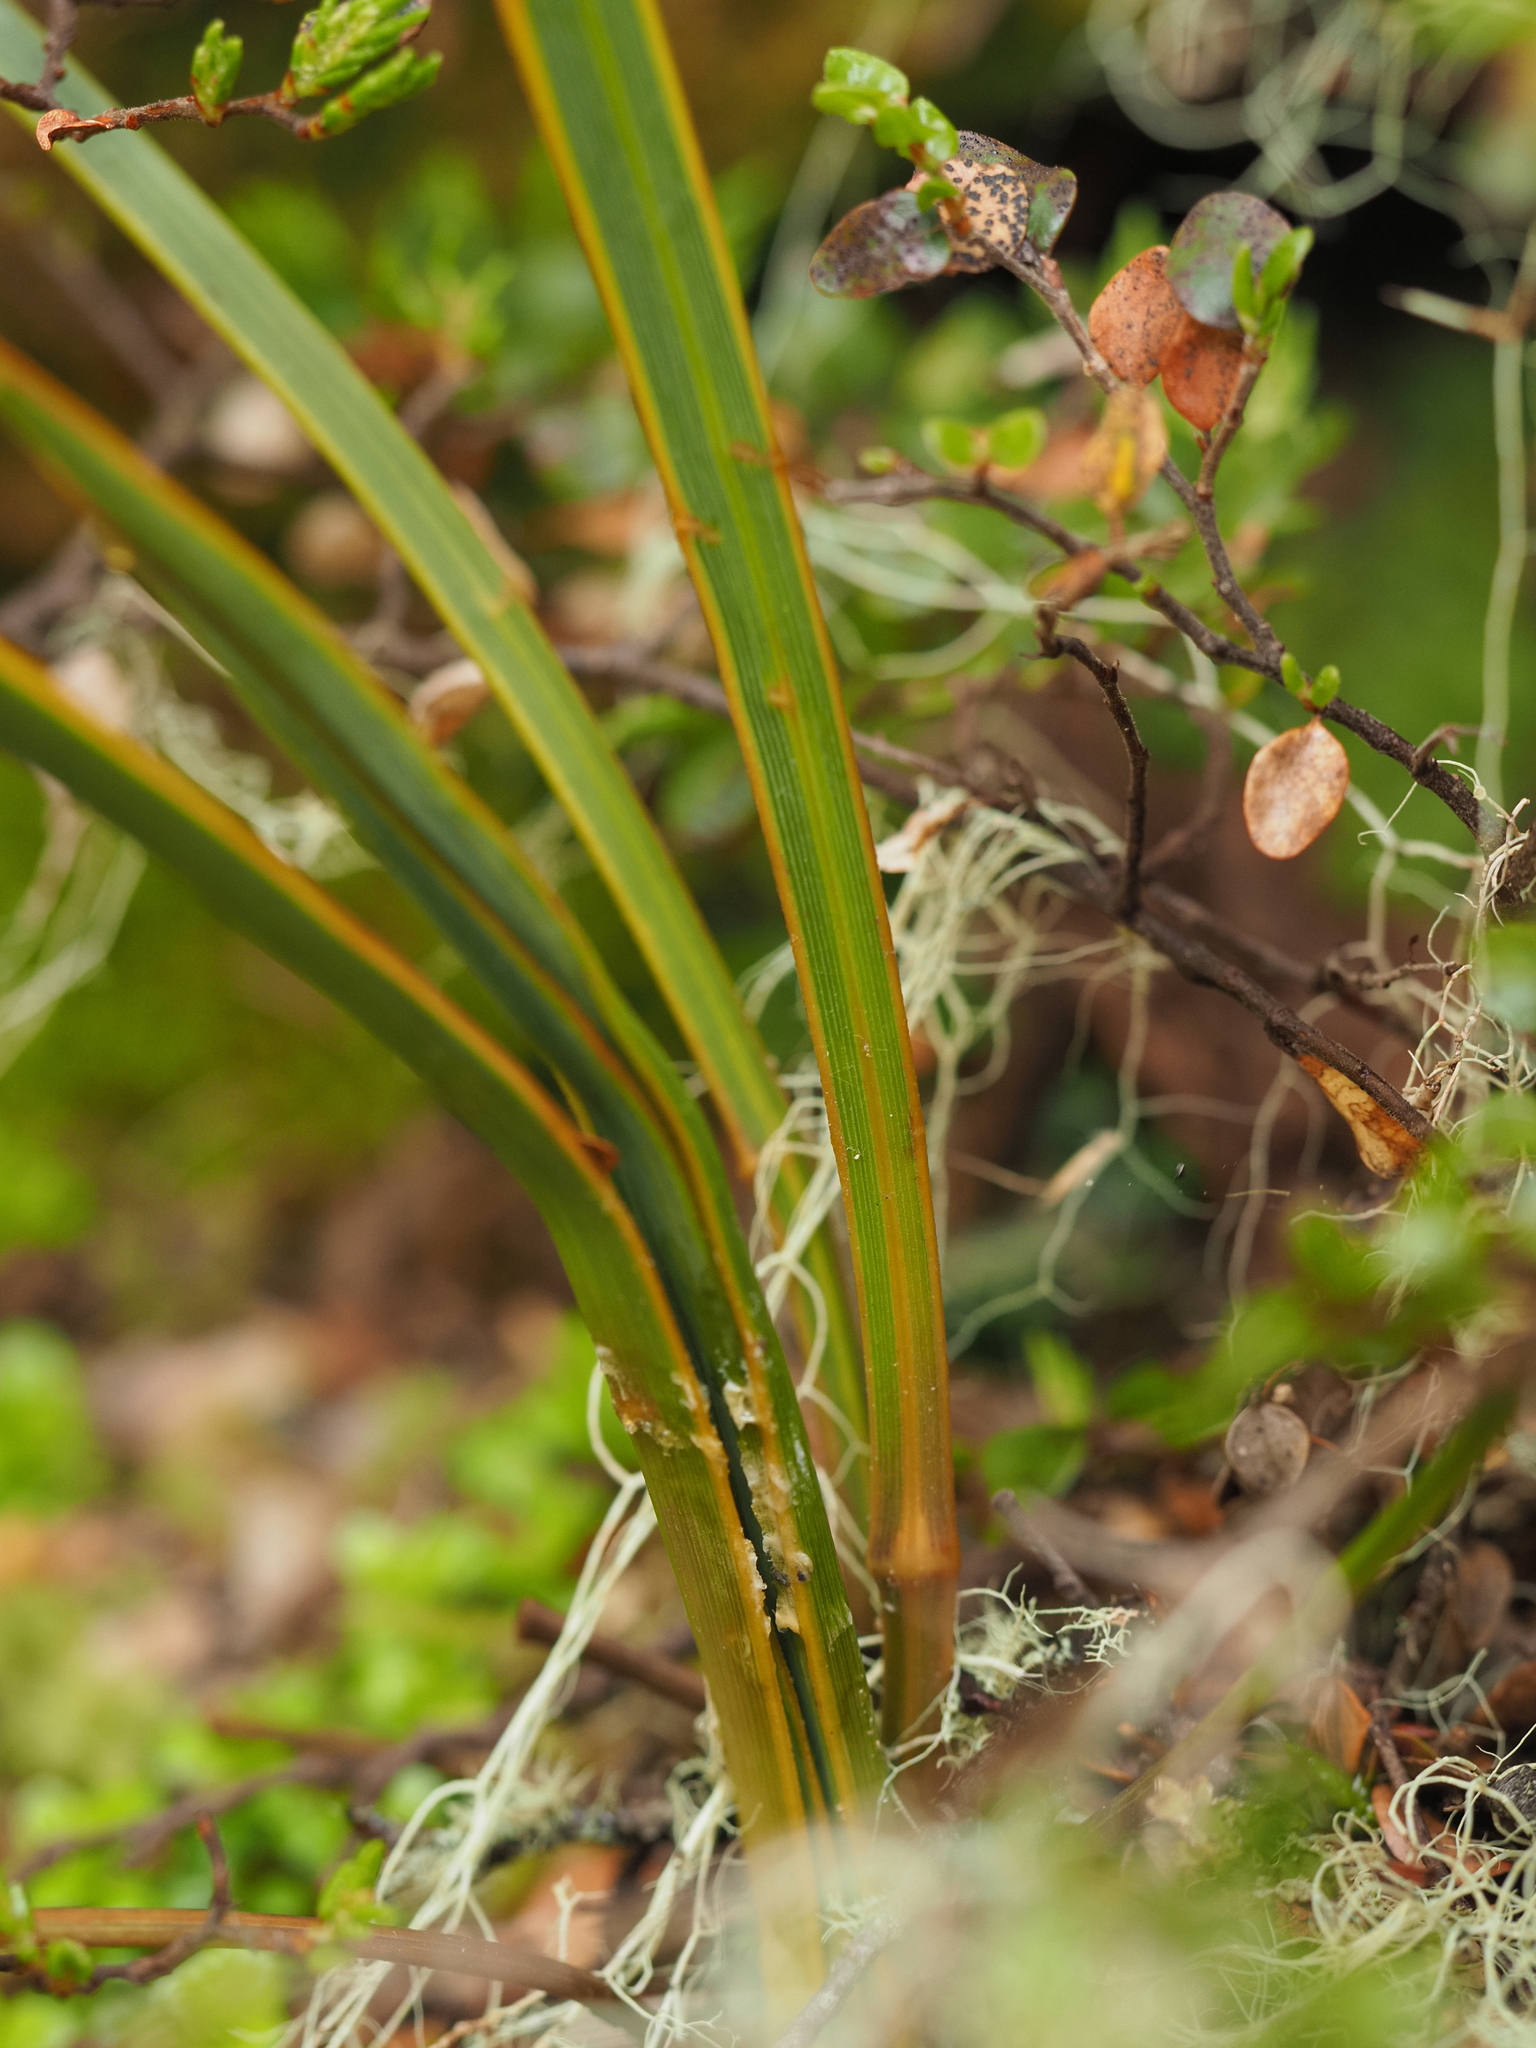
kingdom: Plantae
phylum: Tracheophyta
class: Liliopsida
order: Asparagales
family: Iridaceae
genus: Libertia
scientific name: Libertia ixioides
